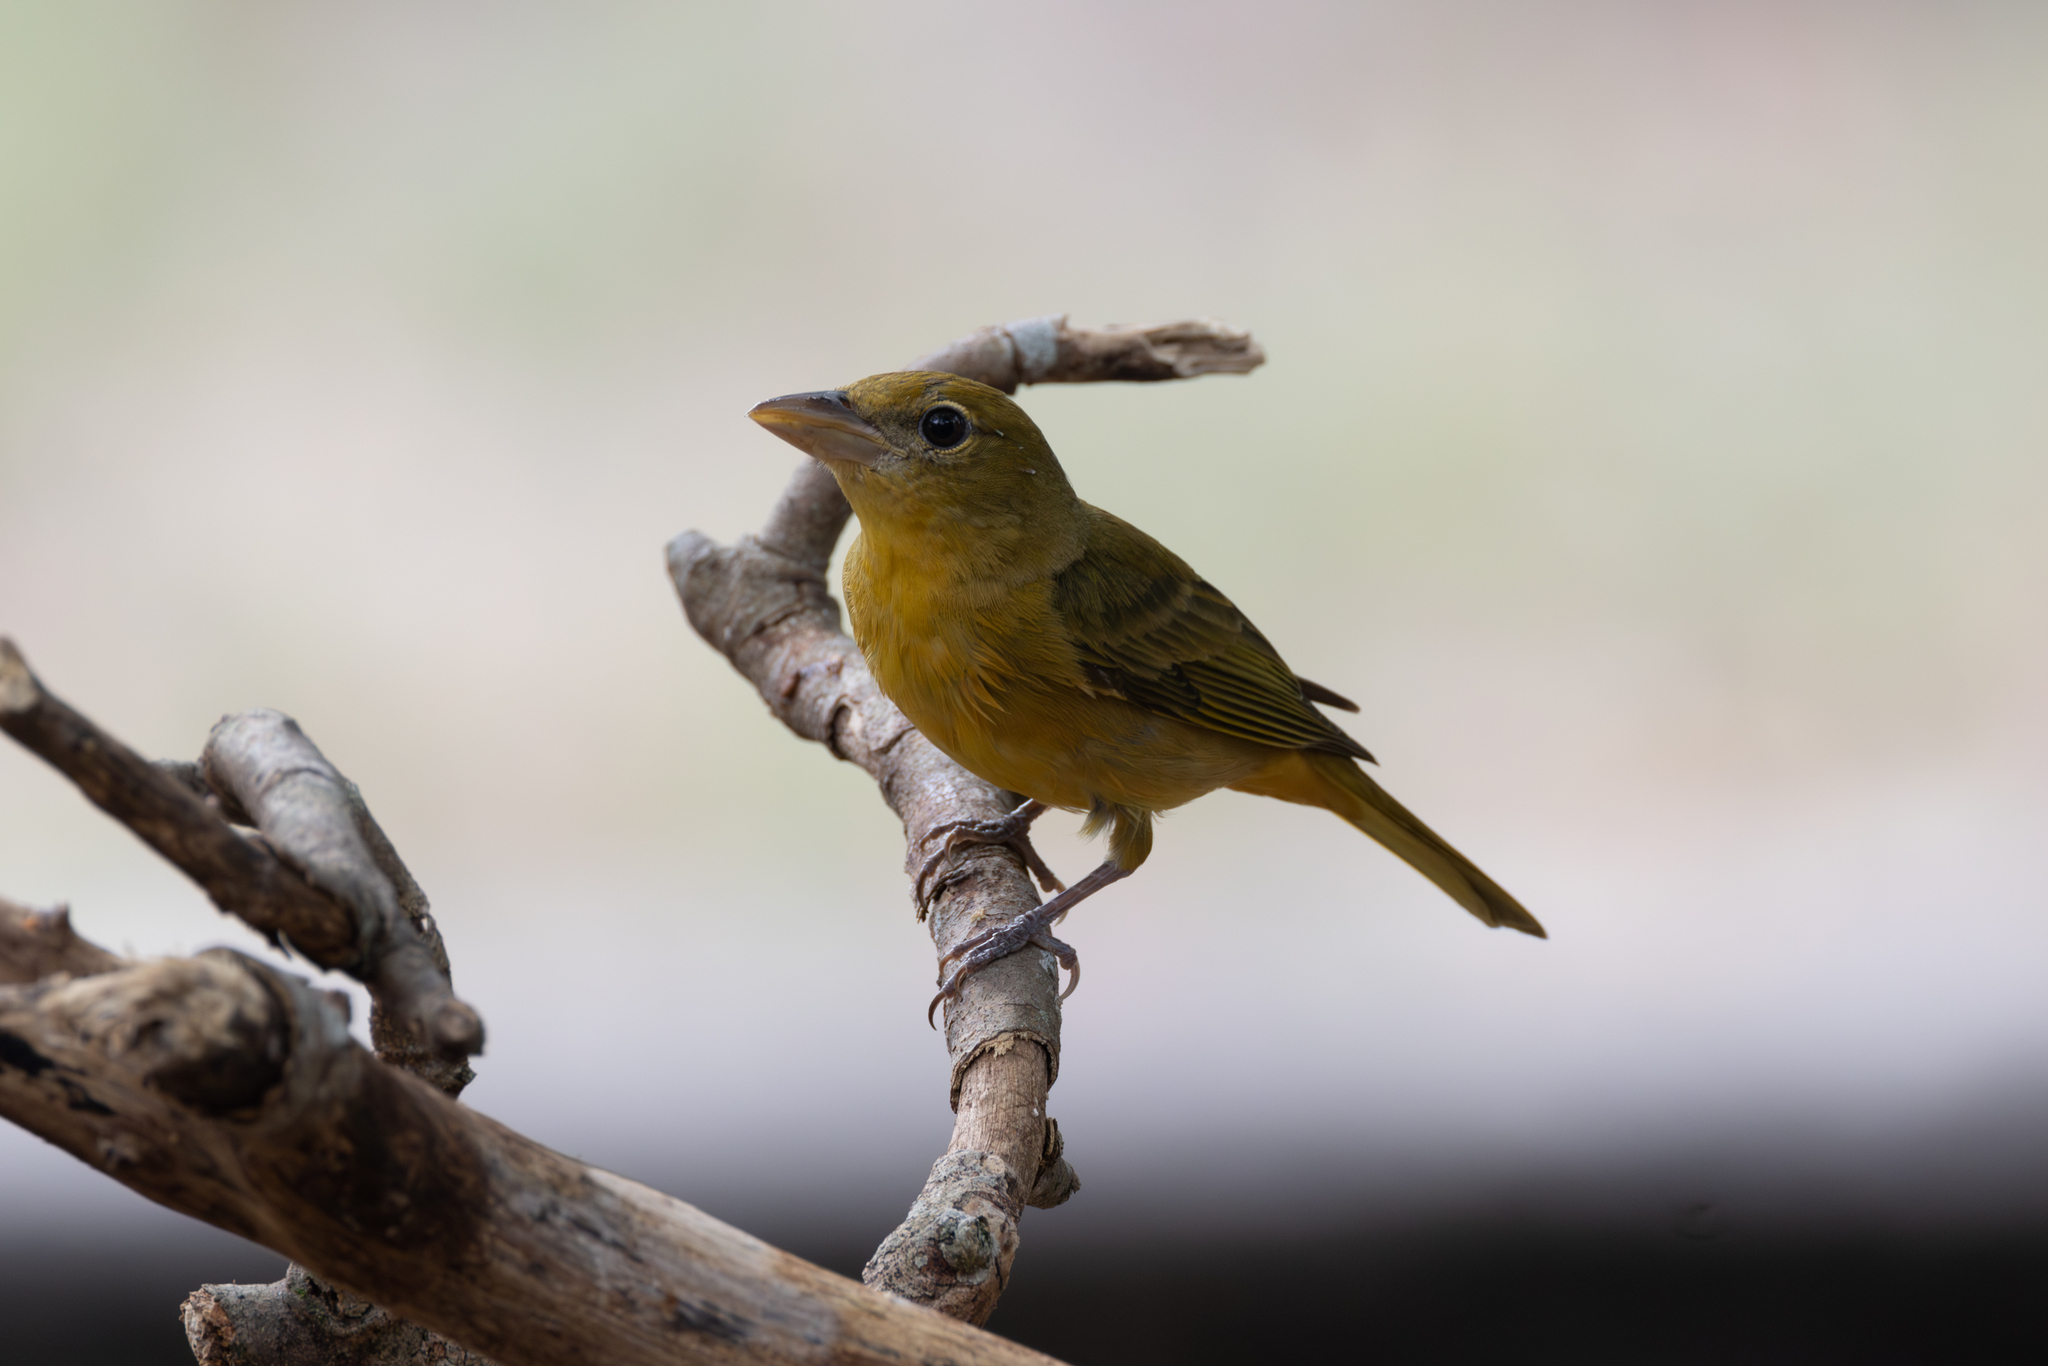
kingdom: Animalia
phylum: Chordata
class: Aves
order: Passeriformes
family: Cardinalidae
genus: Piranga
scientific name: Piranga rubra
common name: Summer tanager
